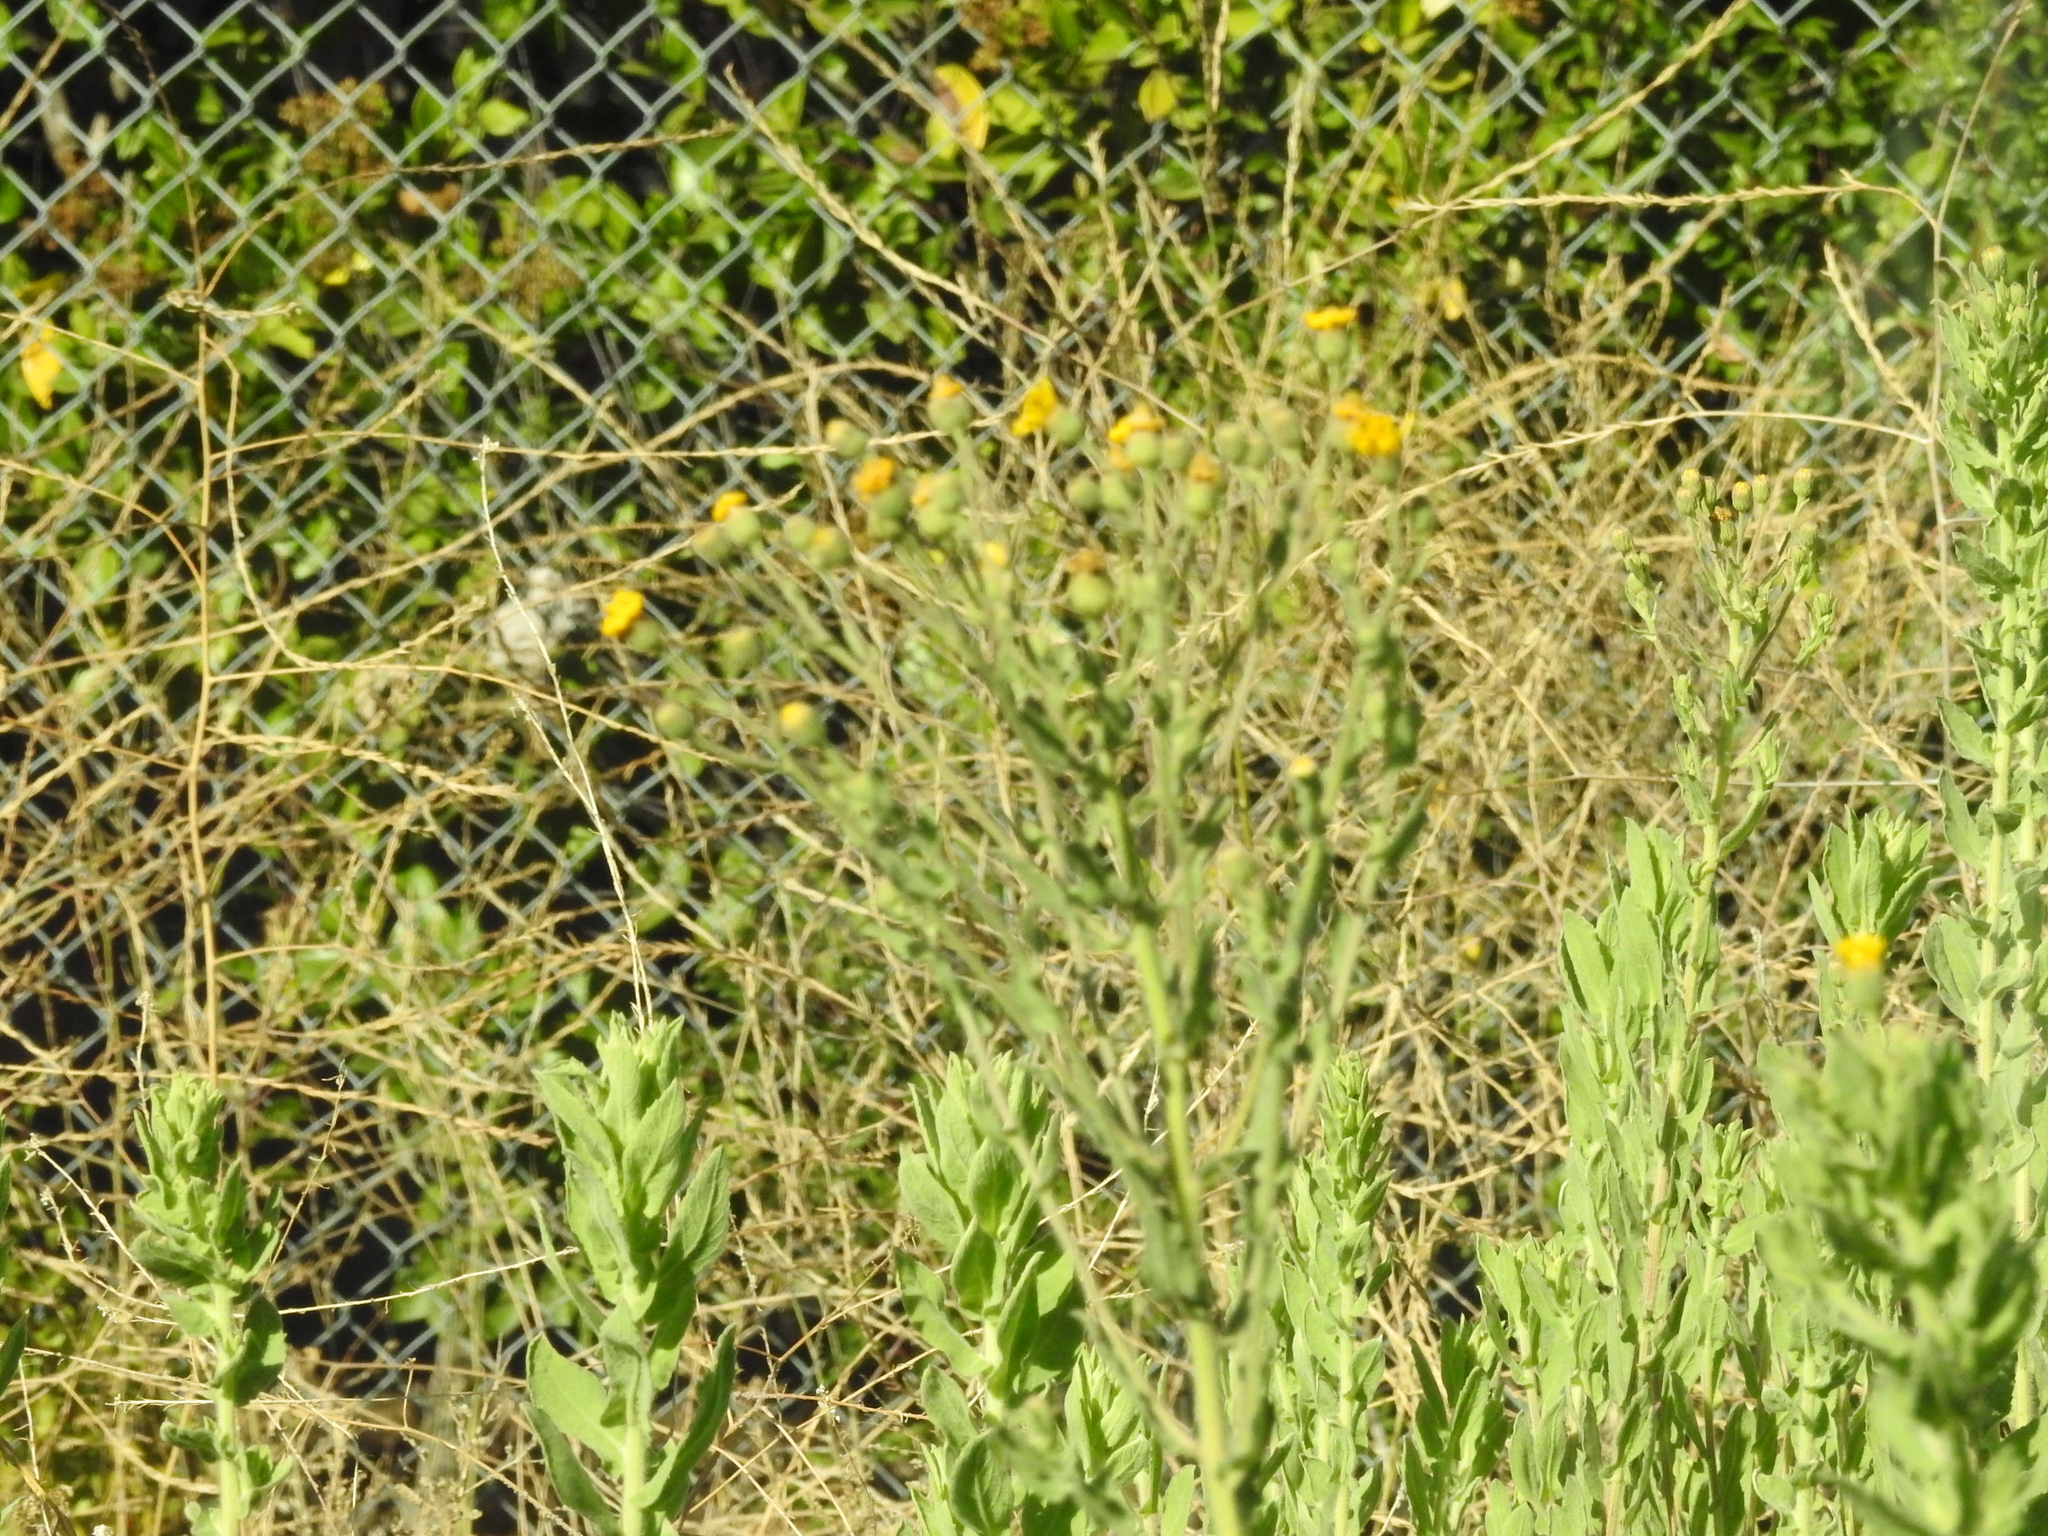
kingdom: Plantae
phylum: Tracheophyta
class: Magnoliopsida
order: Asterales
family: Asteraceae
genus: Heterotheca
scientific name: Heterotheca grandiflora
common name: Telegraphweed
